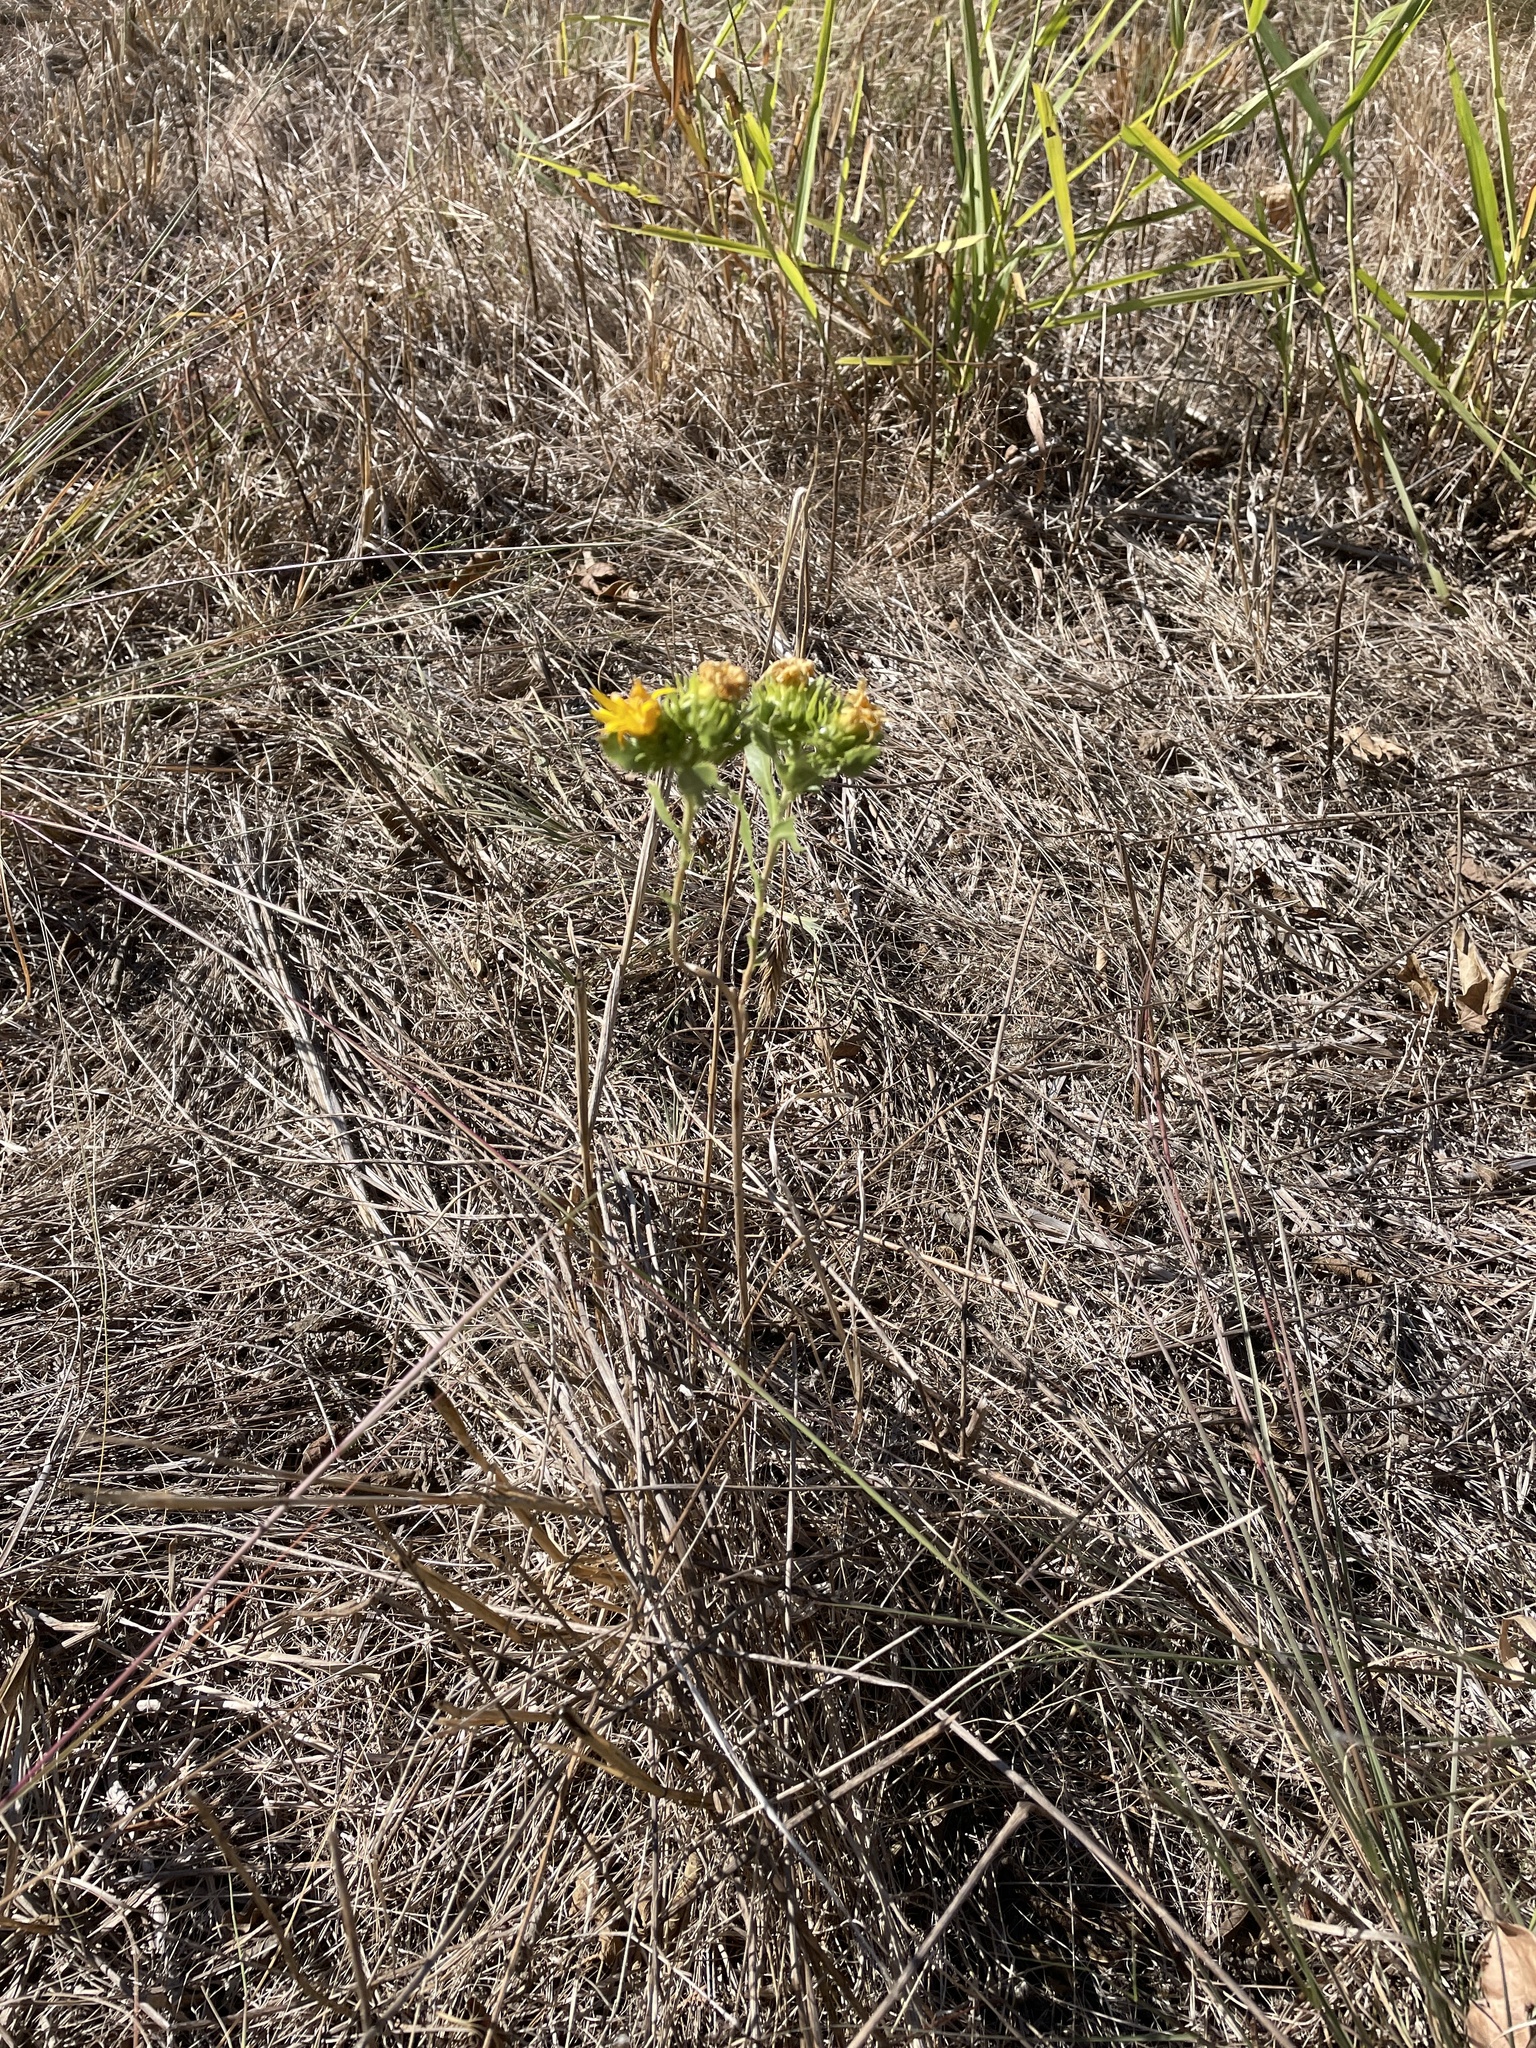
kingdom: Plantae
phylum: Tracheophyta
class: Magnoliopsida
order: Asterales
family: Asteraceae
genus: Grindelia
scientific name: Grindelia ciliata
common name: Goldenweed
